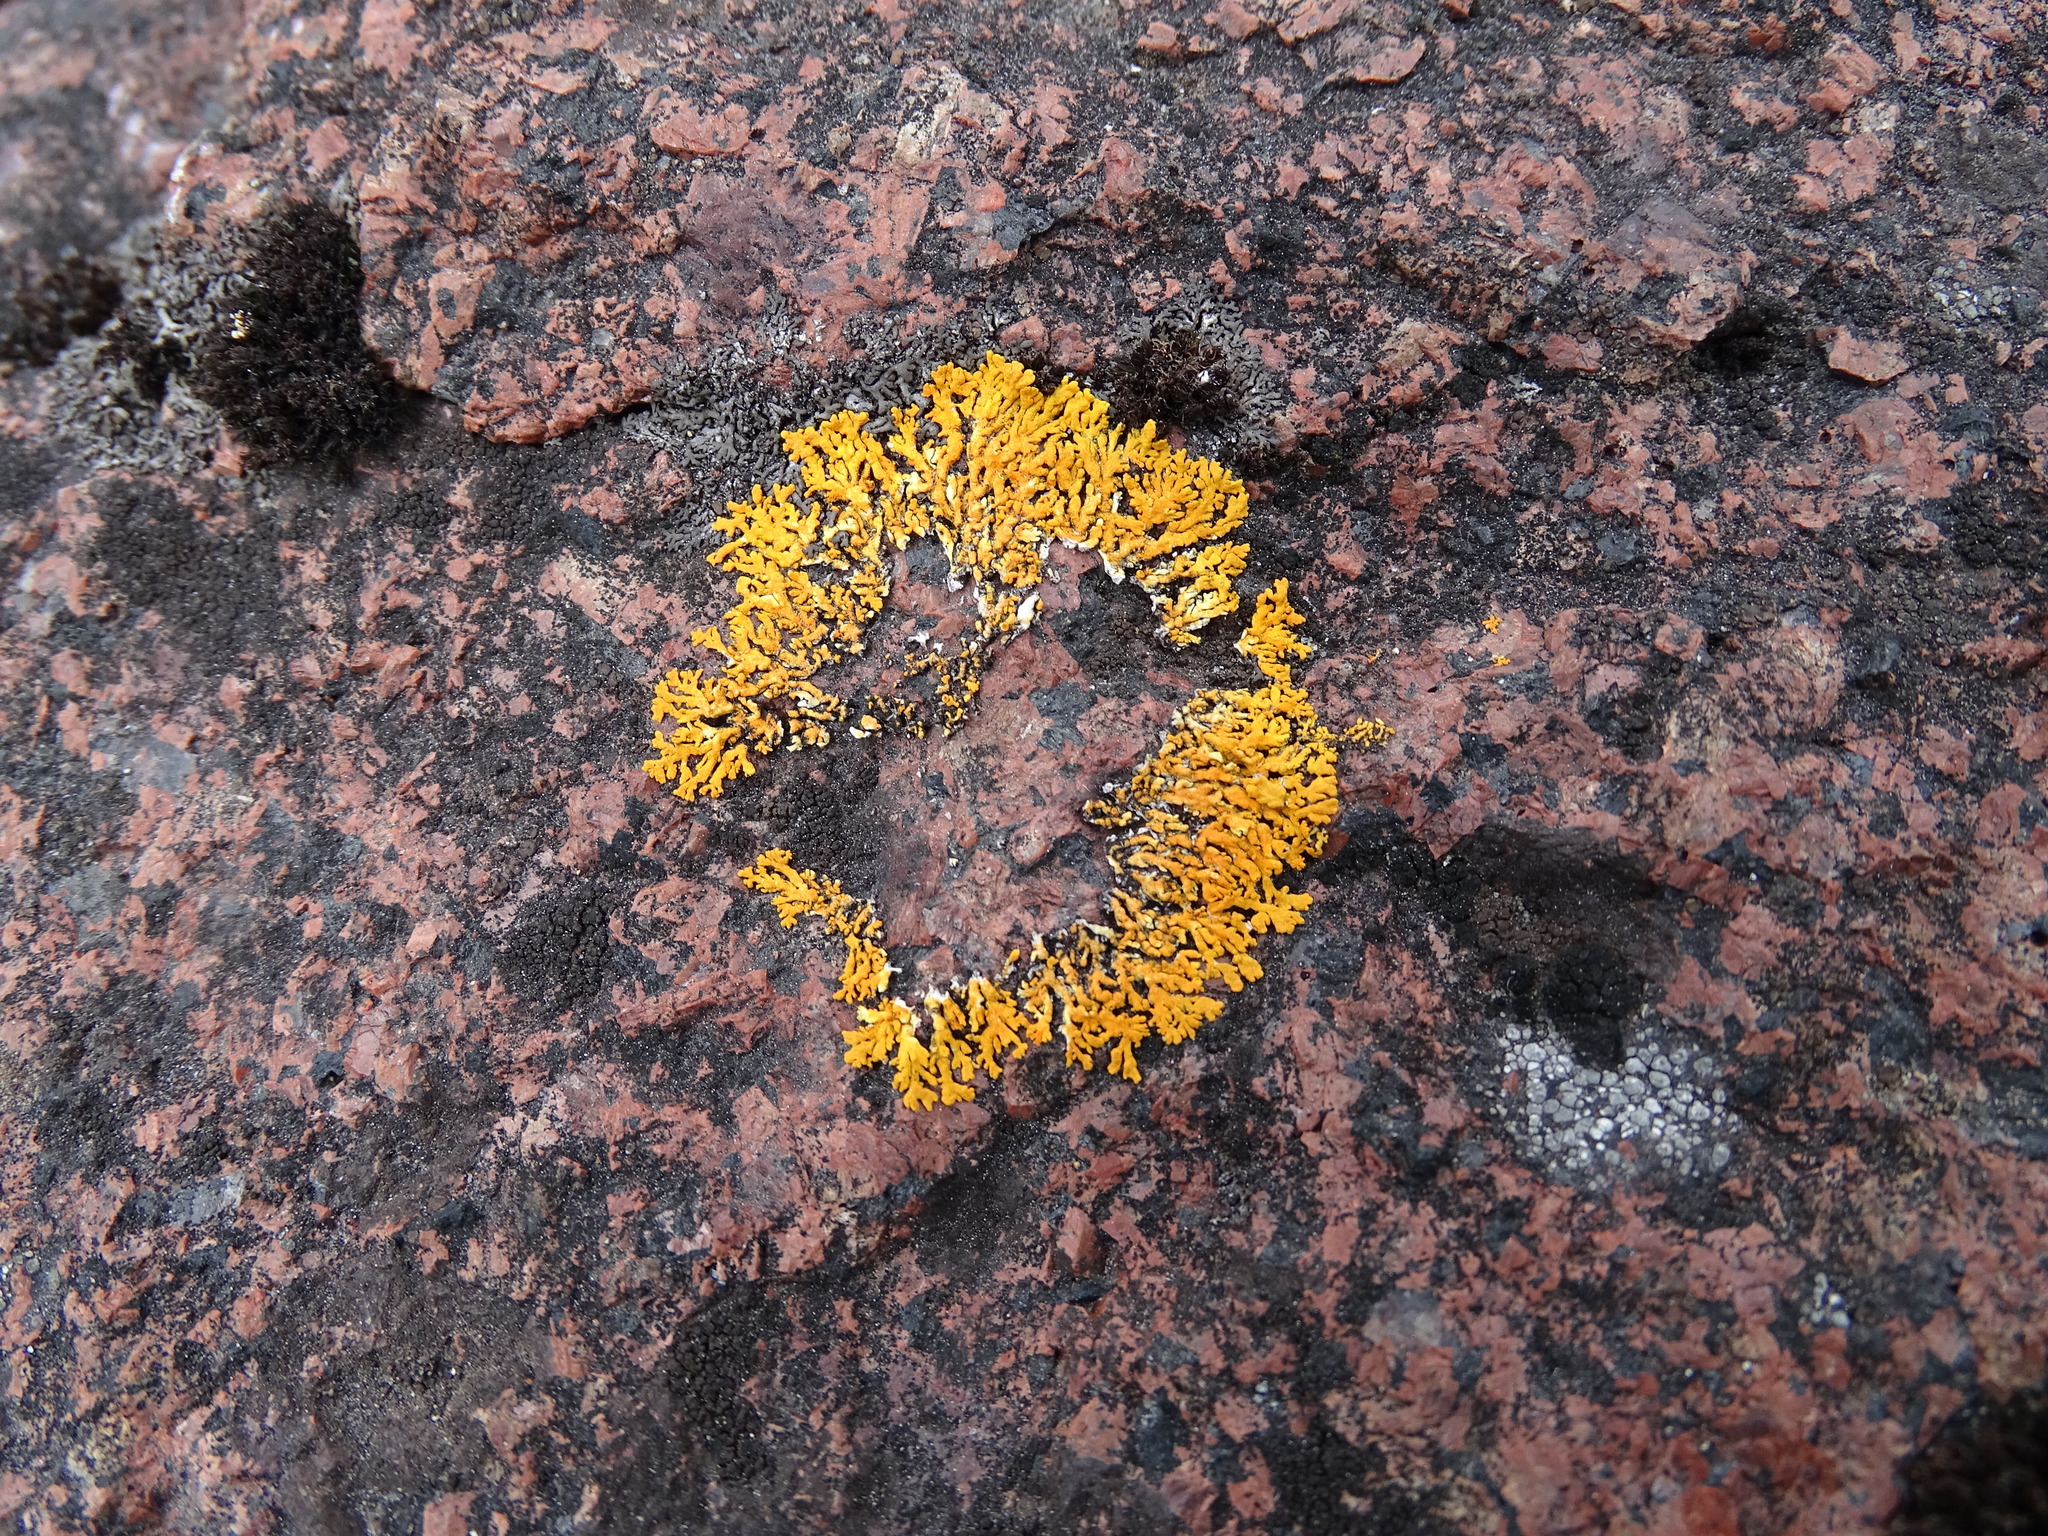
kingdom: Fungi
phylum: Ascomycota
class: Lecanoromycetes
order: Teloschistales
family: Teloschistaceae
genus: Xanthoria
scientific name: Xanthoria elegans
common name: Elegant sunburst lichen
